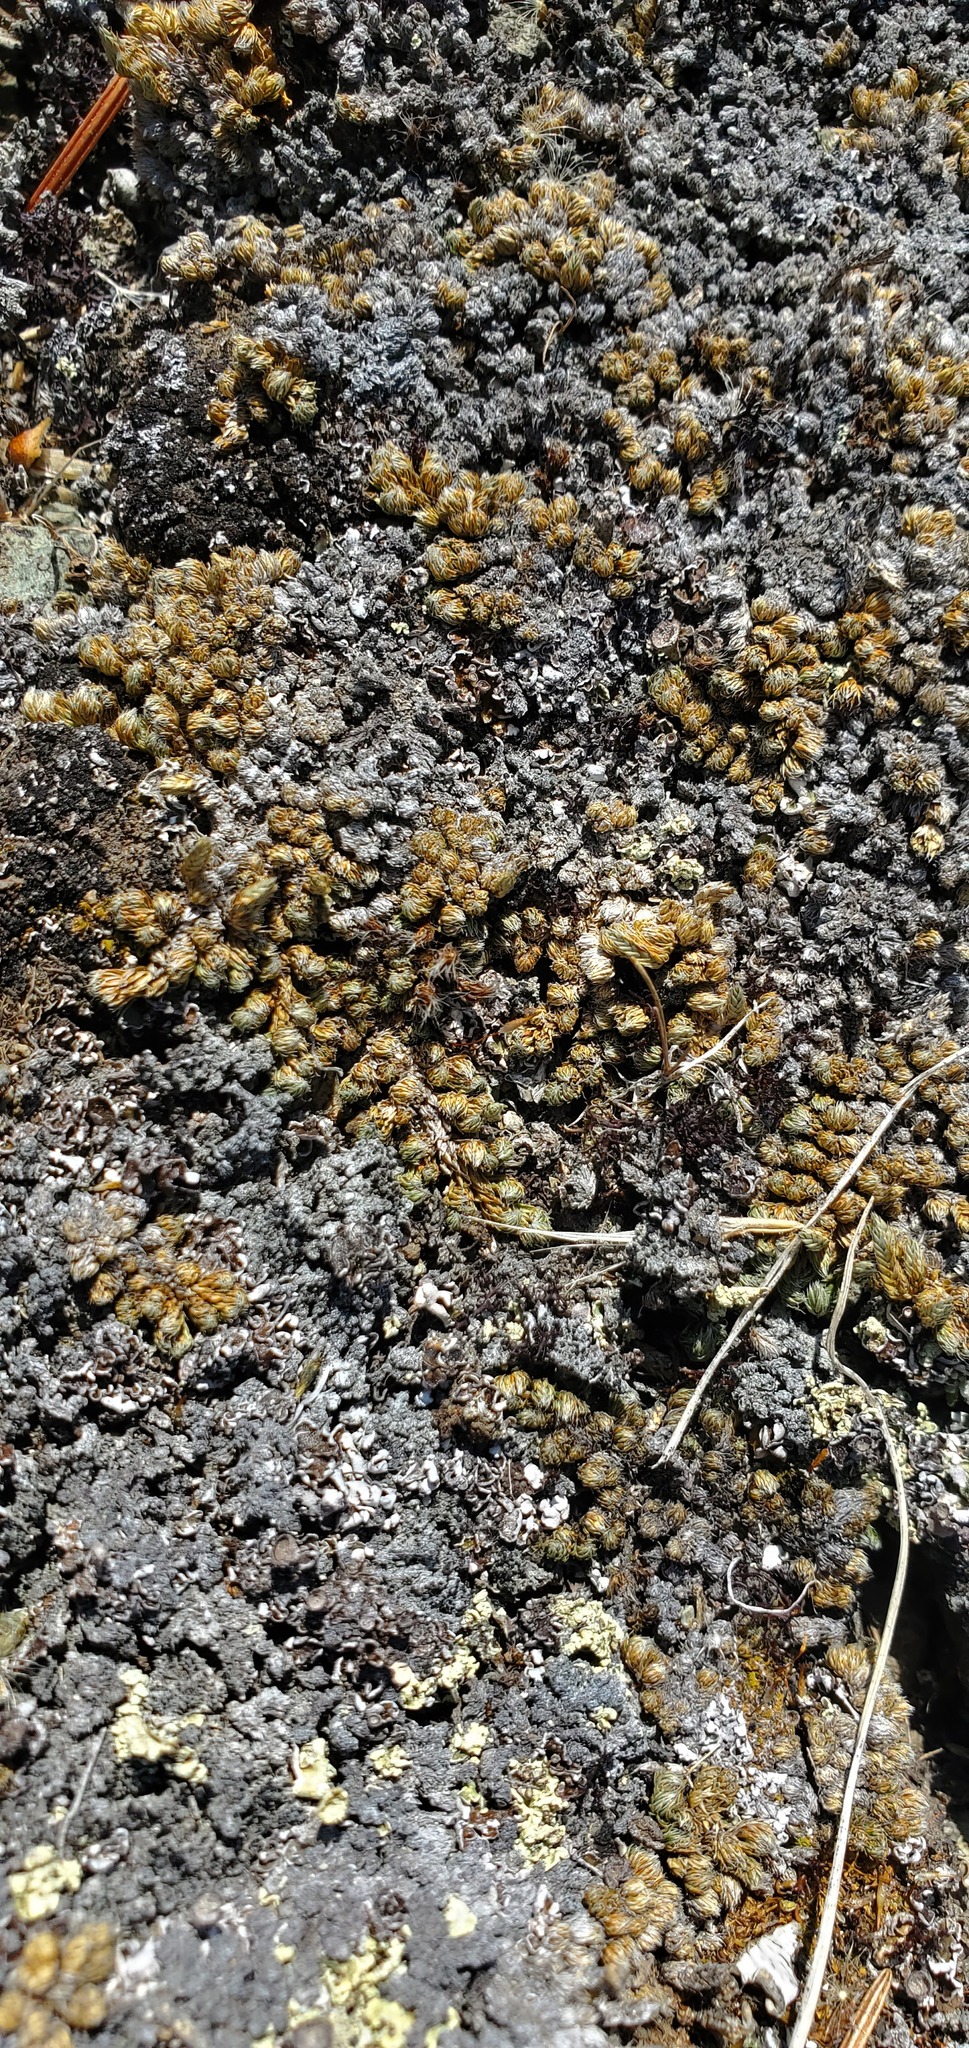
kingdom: Plantae
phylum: Tracheophyta
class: Lycopodiopsida
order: Selaginellales
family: Selaginellaceae
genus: Selaginella
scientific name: Selaginella densa
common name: Mountain spike-moss
